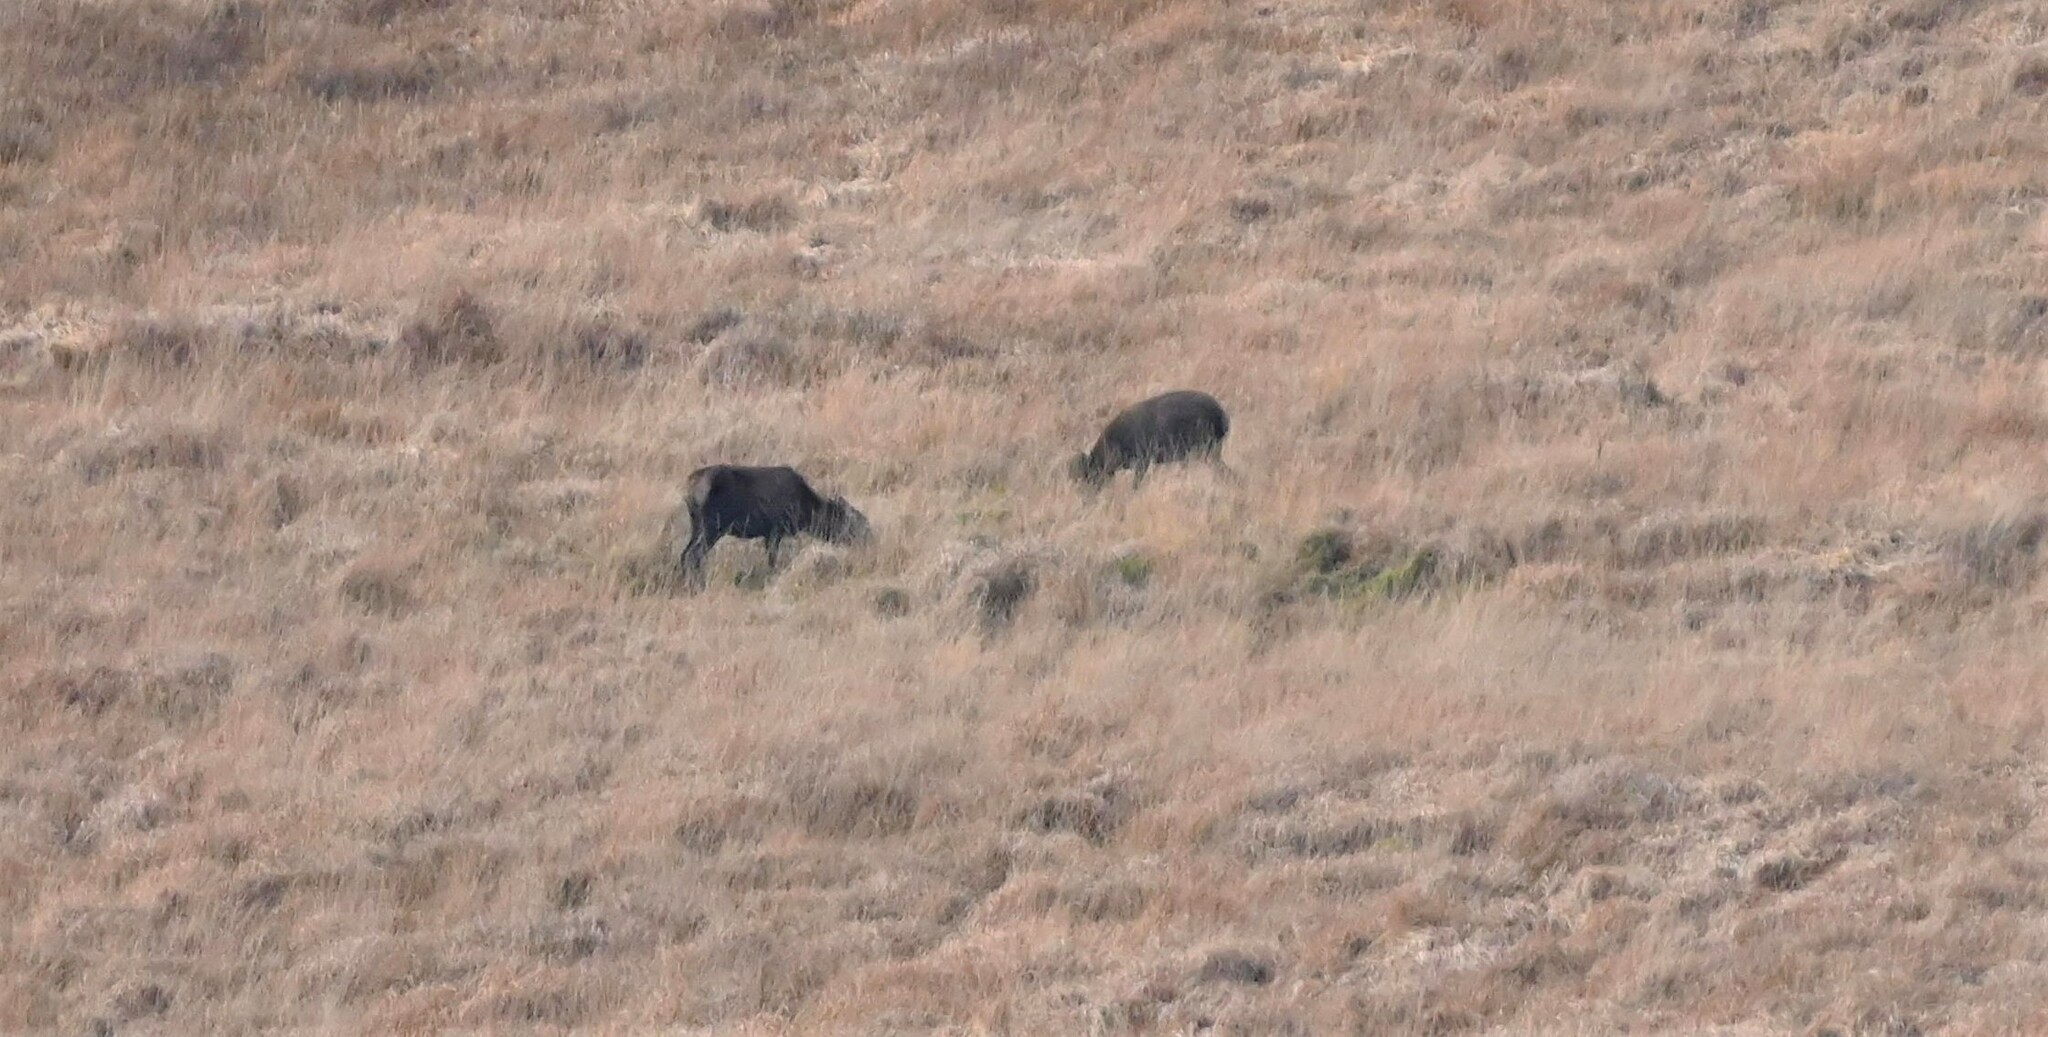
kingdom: Animalia
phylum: Chordata
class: Mammalia
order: Artiodactyla
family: Cervidae
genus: Cervus
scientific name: Cervus elaphus
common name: Red deer
